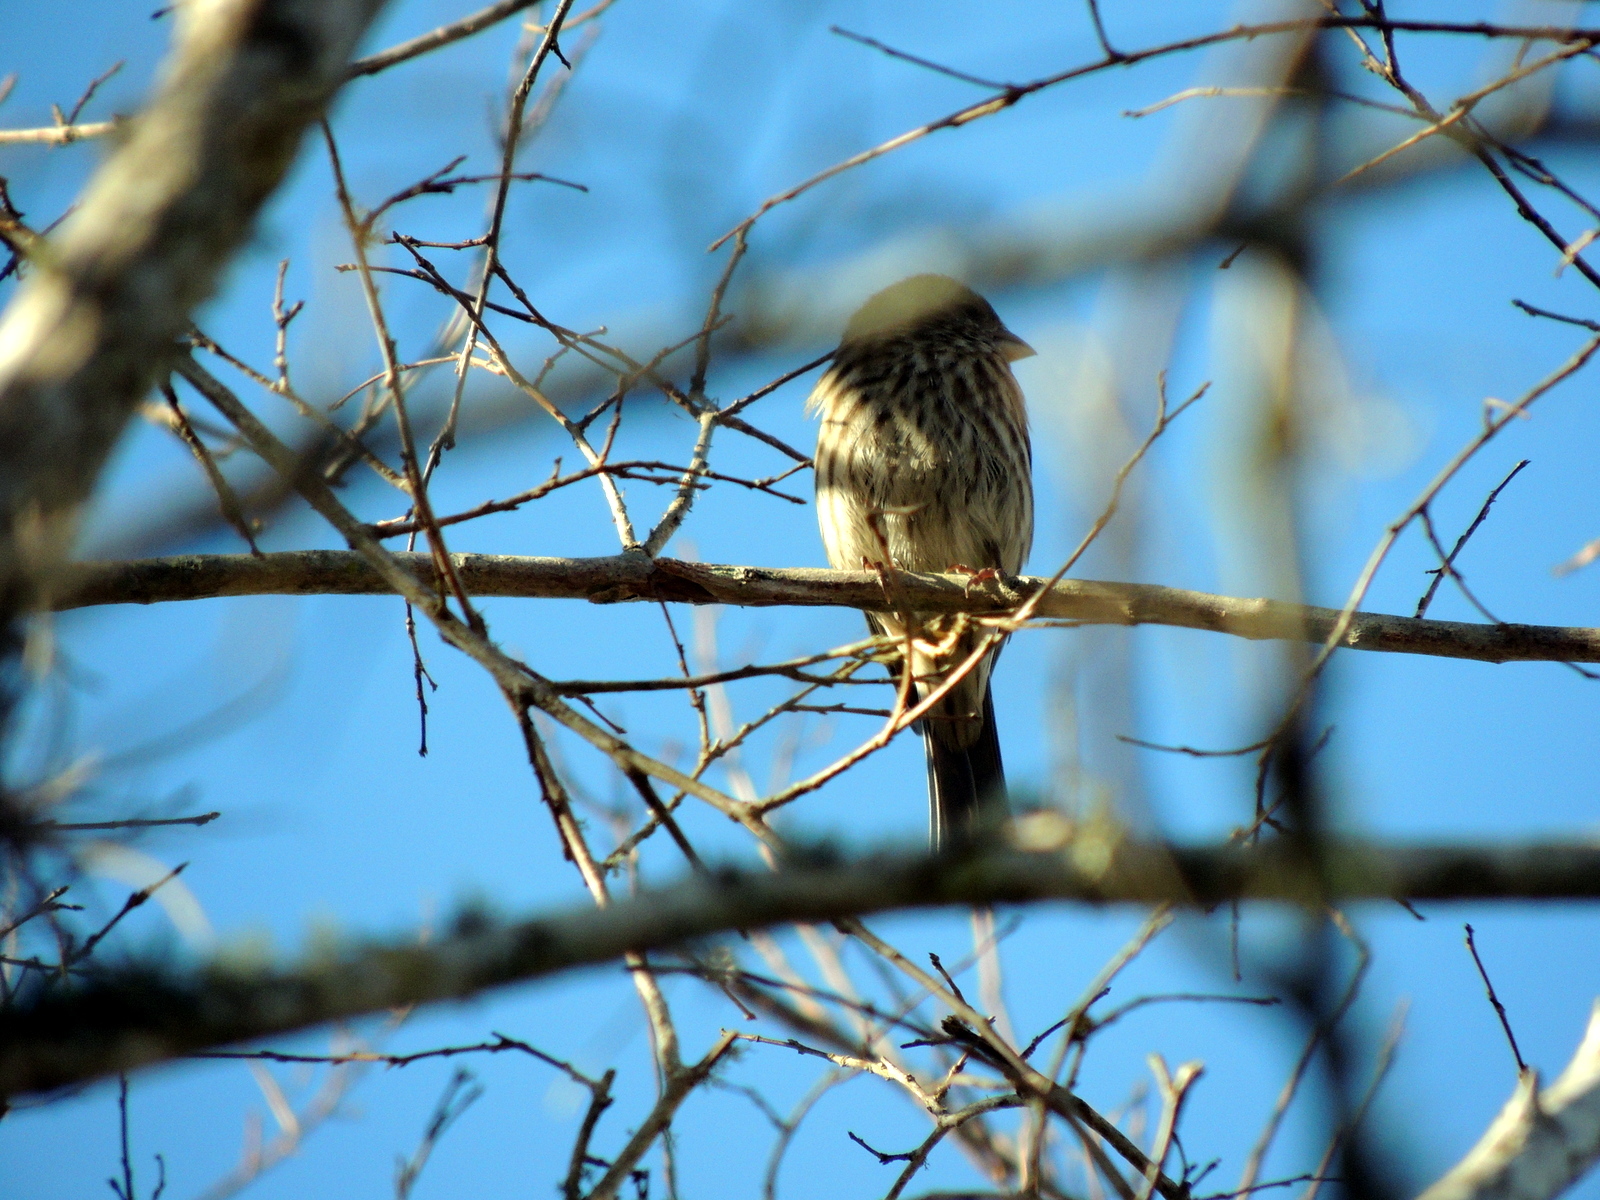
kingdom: Animalia
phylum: Chordata
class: Aves
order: Passeriformes
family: Fringillidae
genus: Haemorhous
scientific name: Haemorhous mexicanus
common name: House finch
